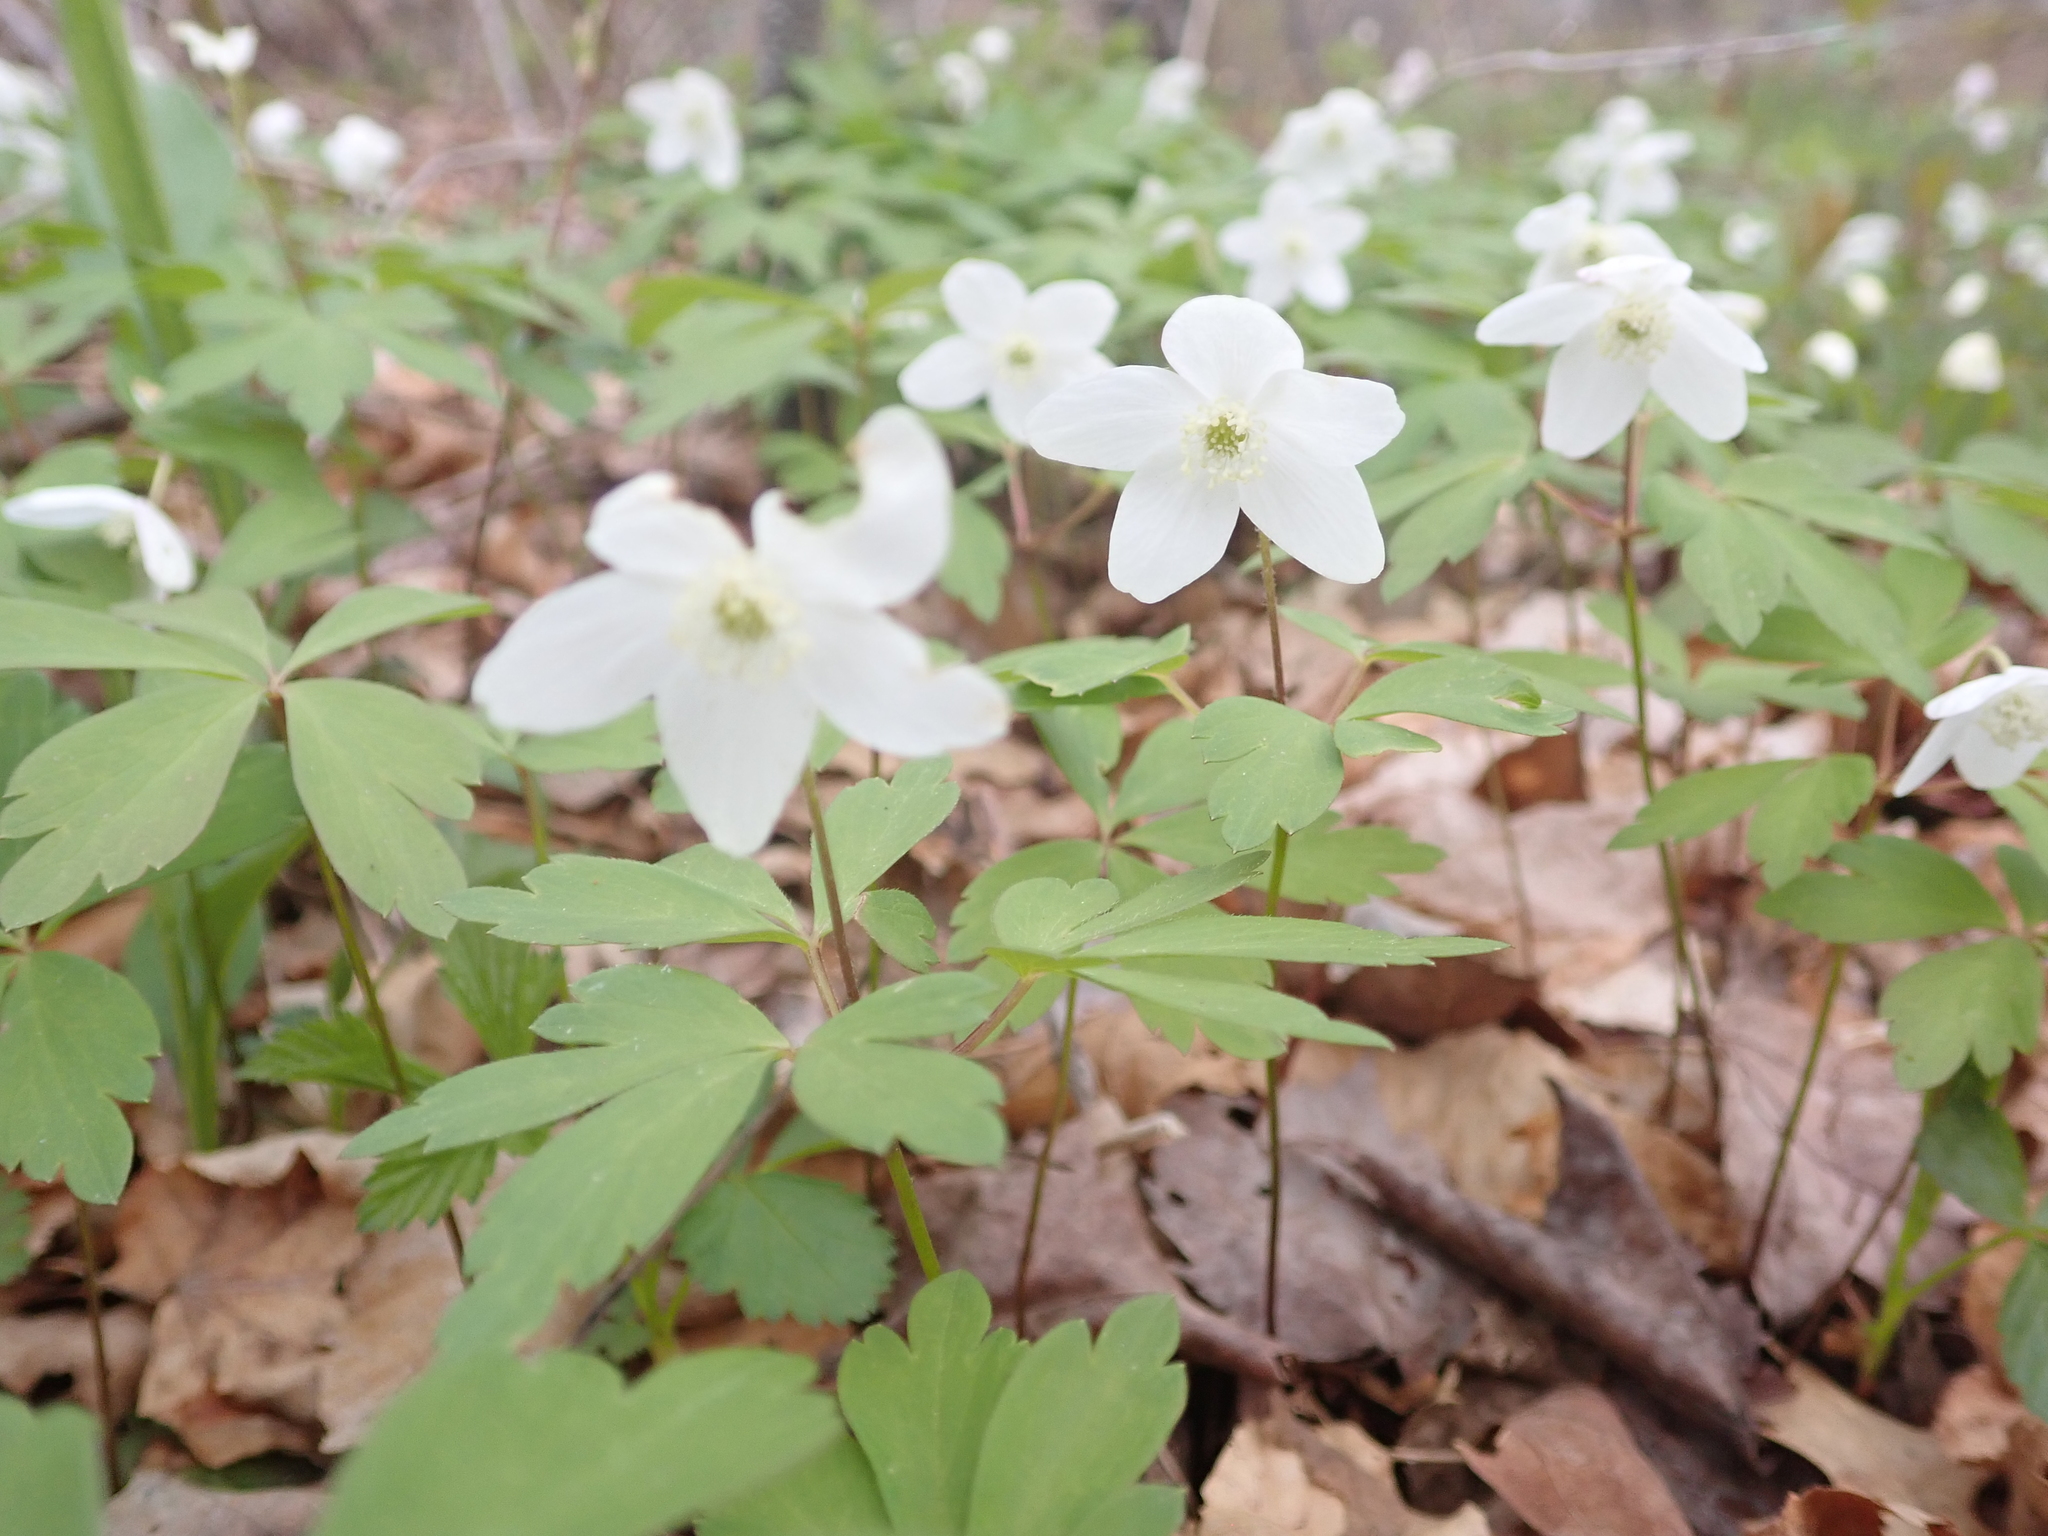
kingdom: Plantae
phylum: Tracheophyta
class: Magnoliopsida
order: Ranunculales
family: Ranunculaceae
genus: Anemone
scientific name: Anemone quinquefolia
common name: Wood anemone
